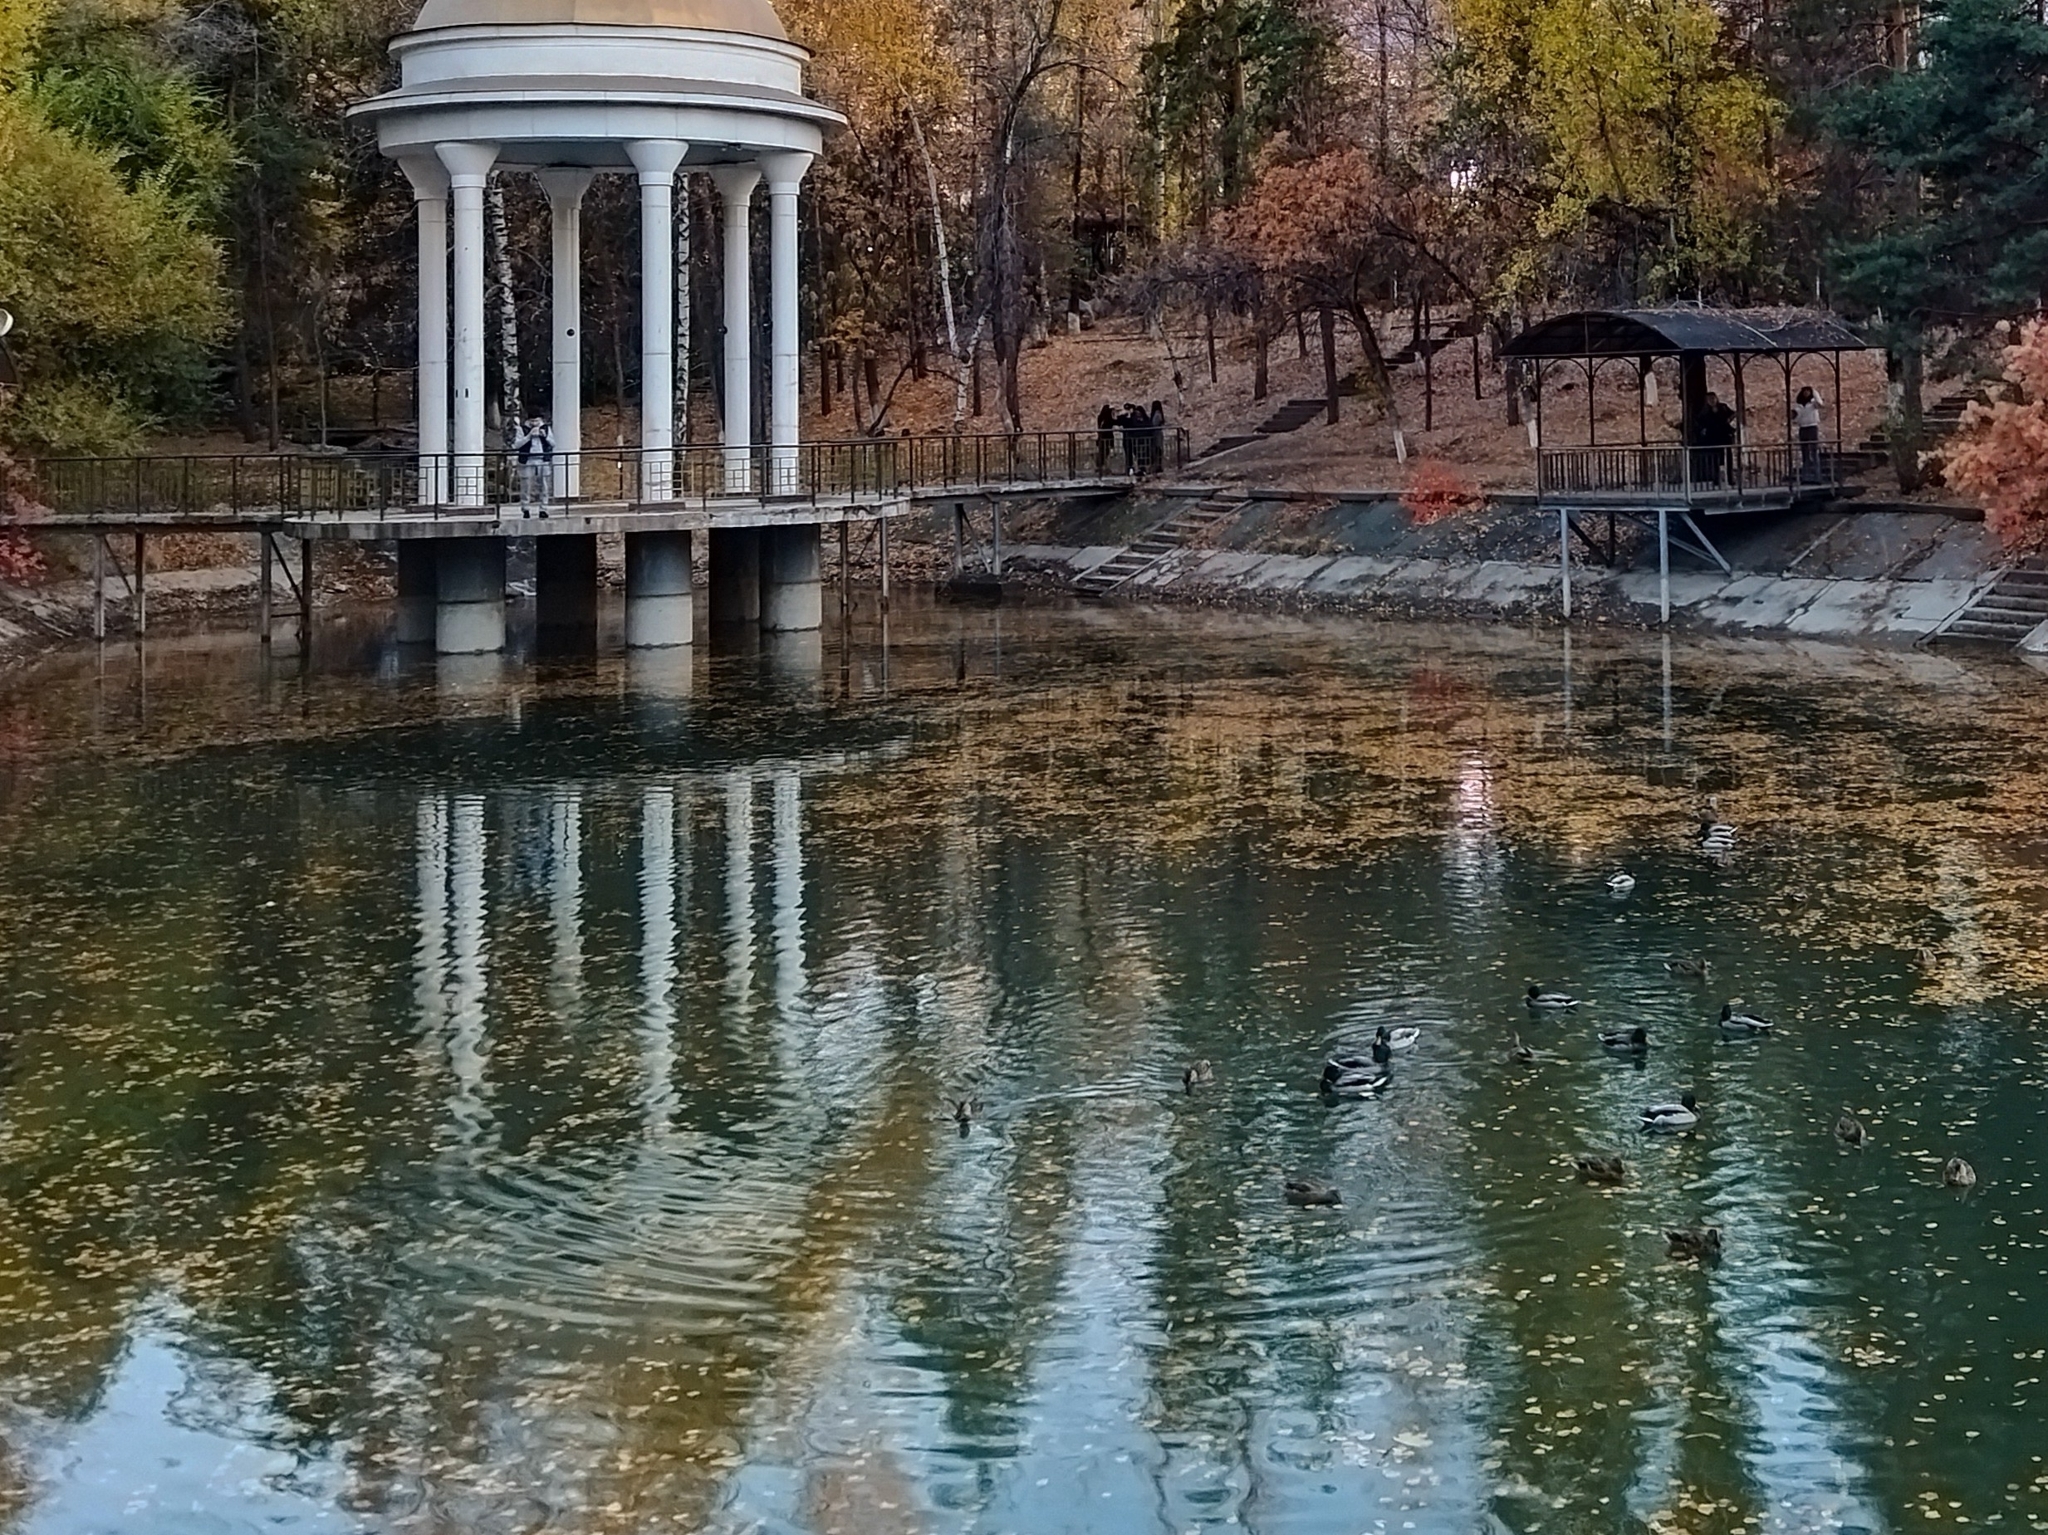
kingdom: Animalia
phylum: Chordata
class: Aves
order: Anseriformes
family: Anatidae
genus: Anas
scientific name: Anas platyrhynchos
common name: Mallard
